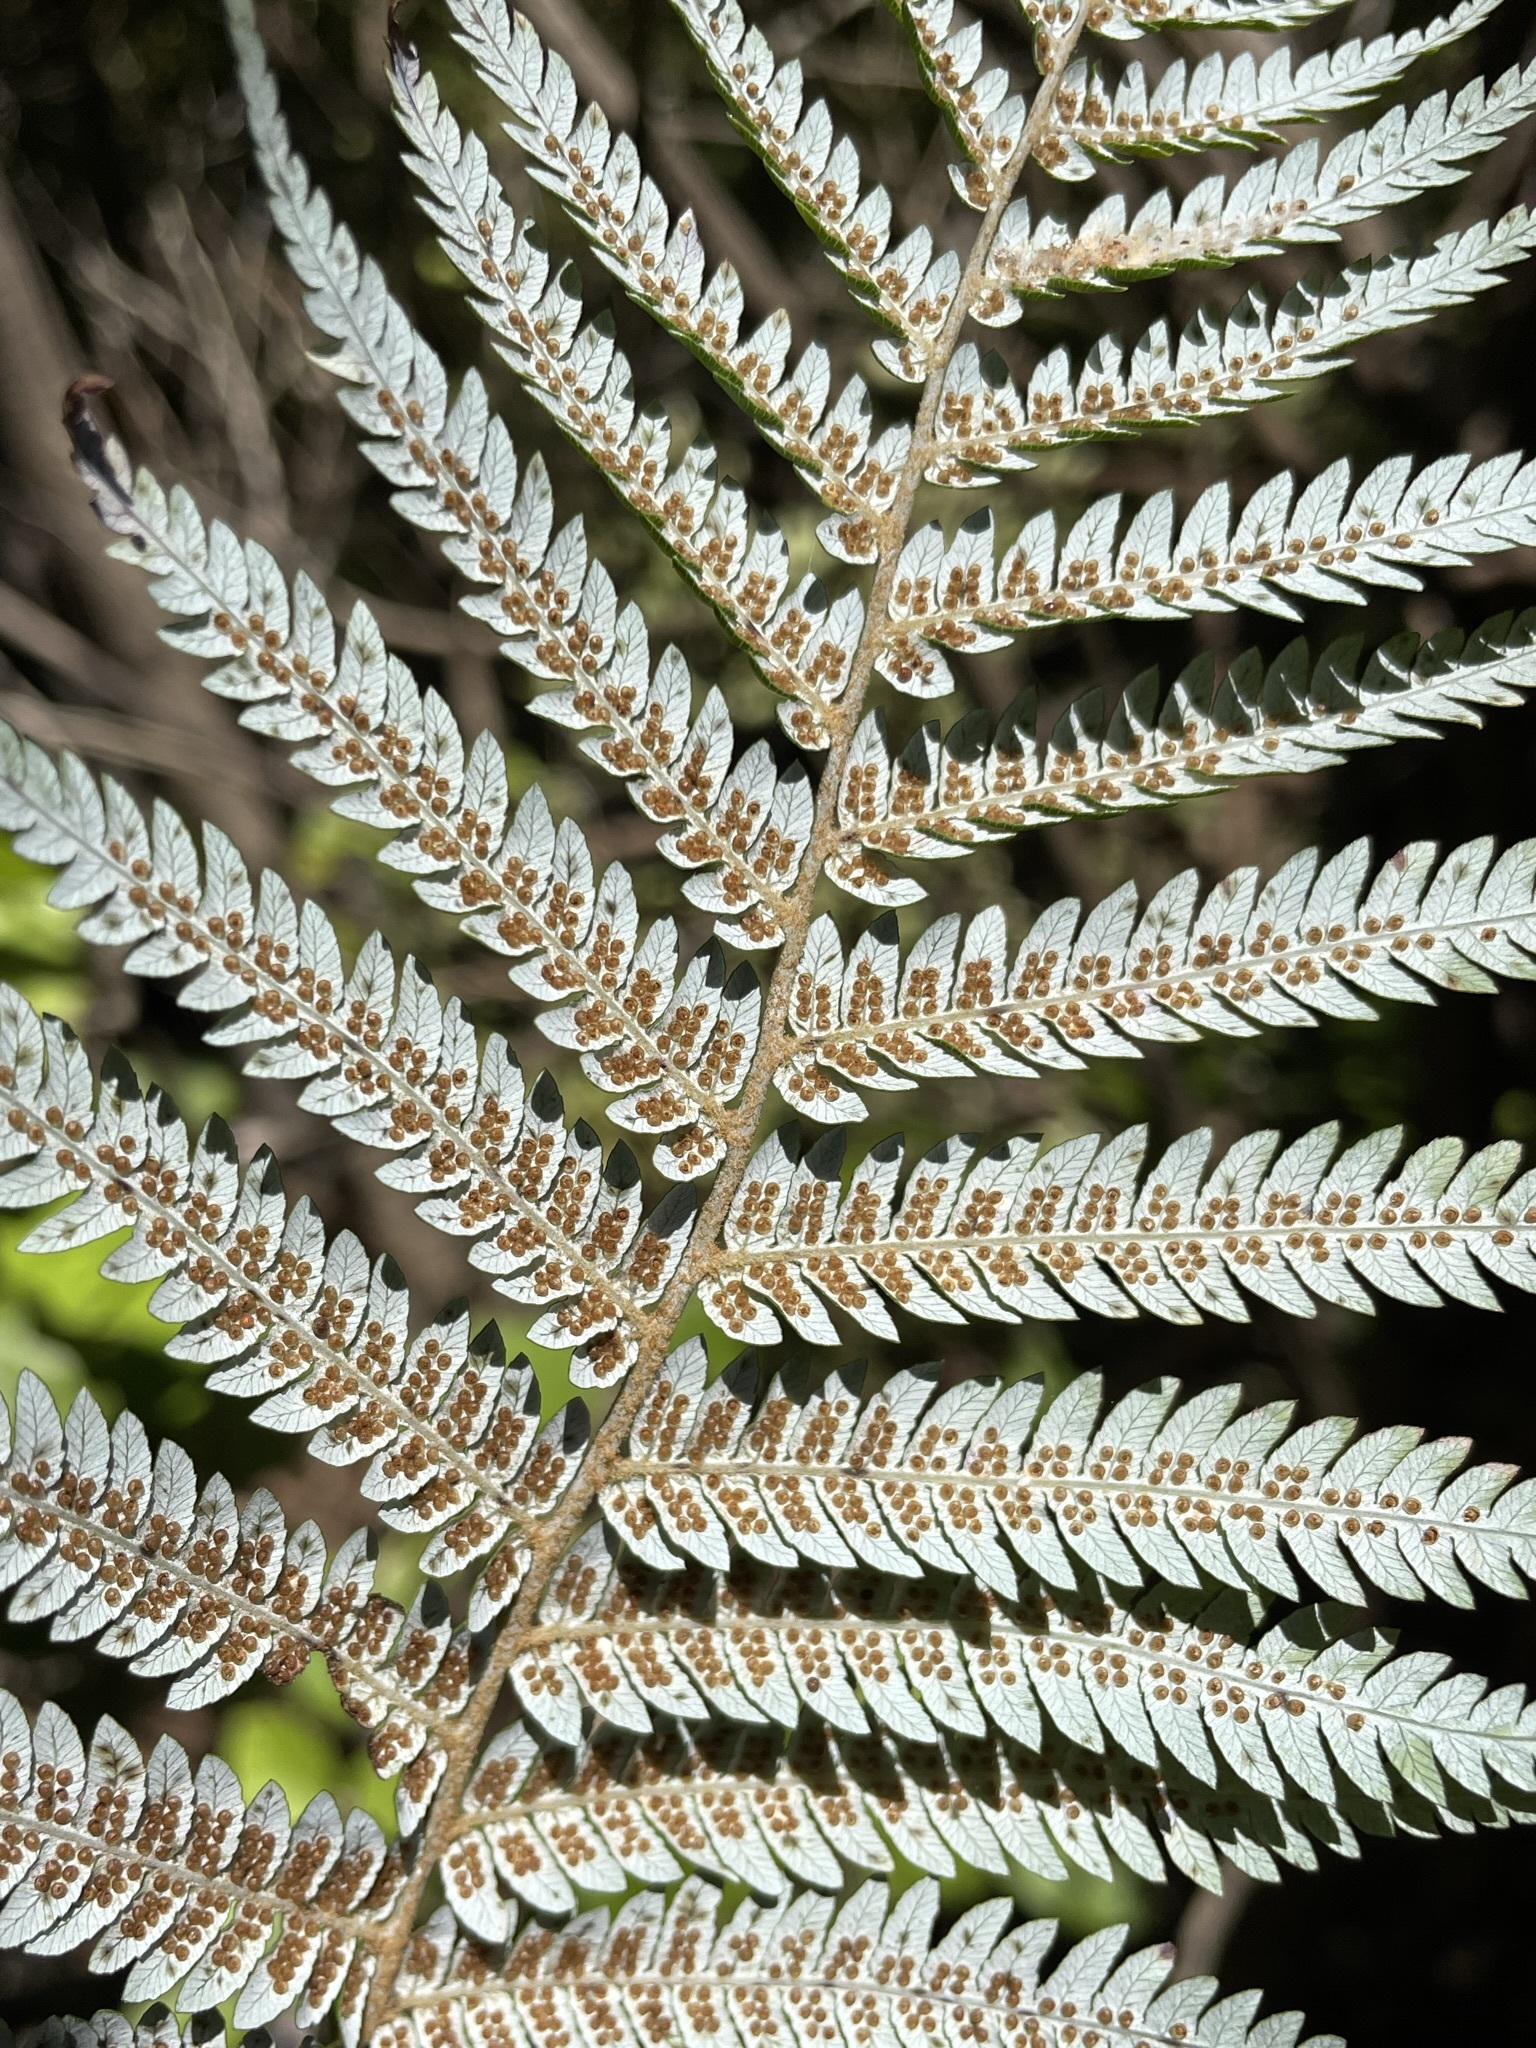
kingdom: Plantae
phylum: Tracheophyta
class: Polypodiopsida
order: Cyatheales
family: Cyatheaceae
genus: Alsophila
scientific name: Alsophila dealbata
